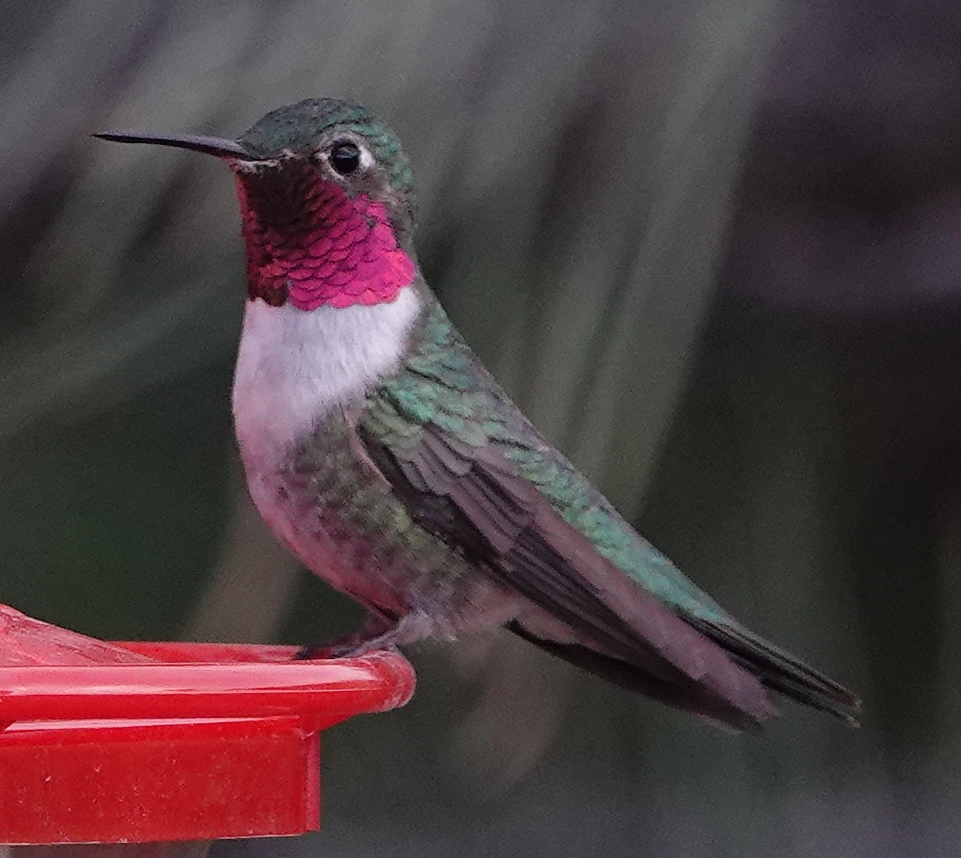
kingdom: Animalia
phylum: Chordata
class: Aves
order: Apodiformes
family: Trochilidae
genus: Selasphorus
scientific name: Selasphorus platycercus
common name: Broad-tailed hummingbird
